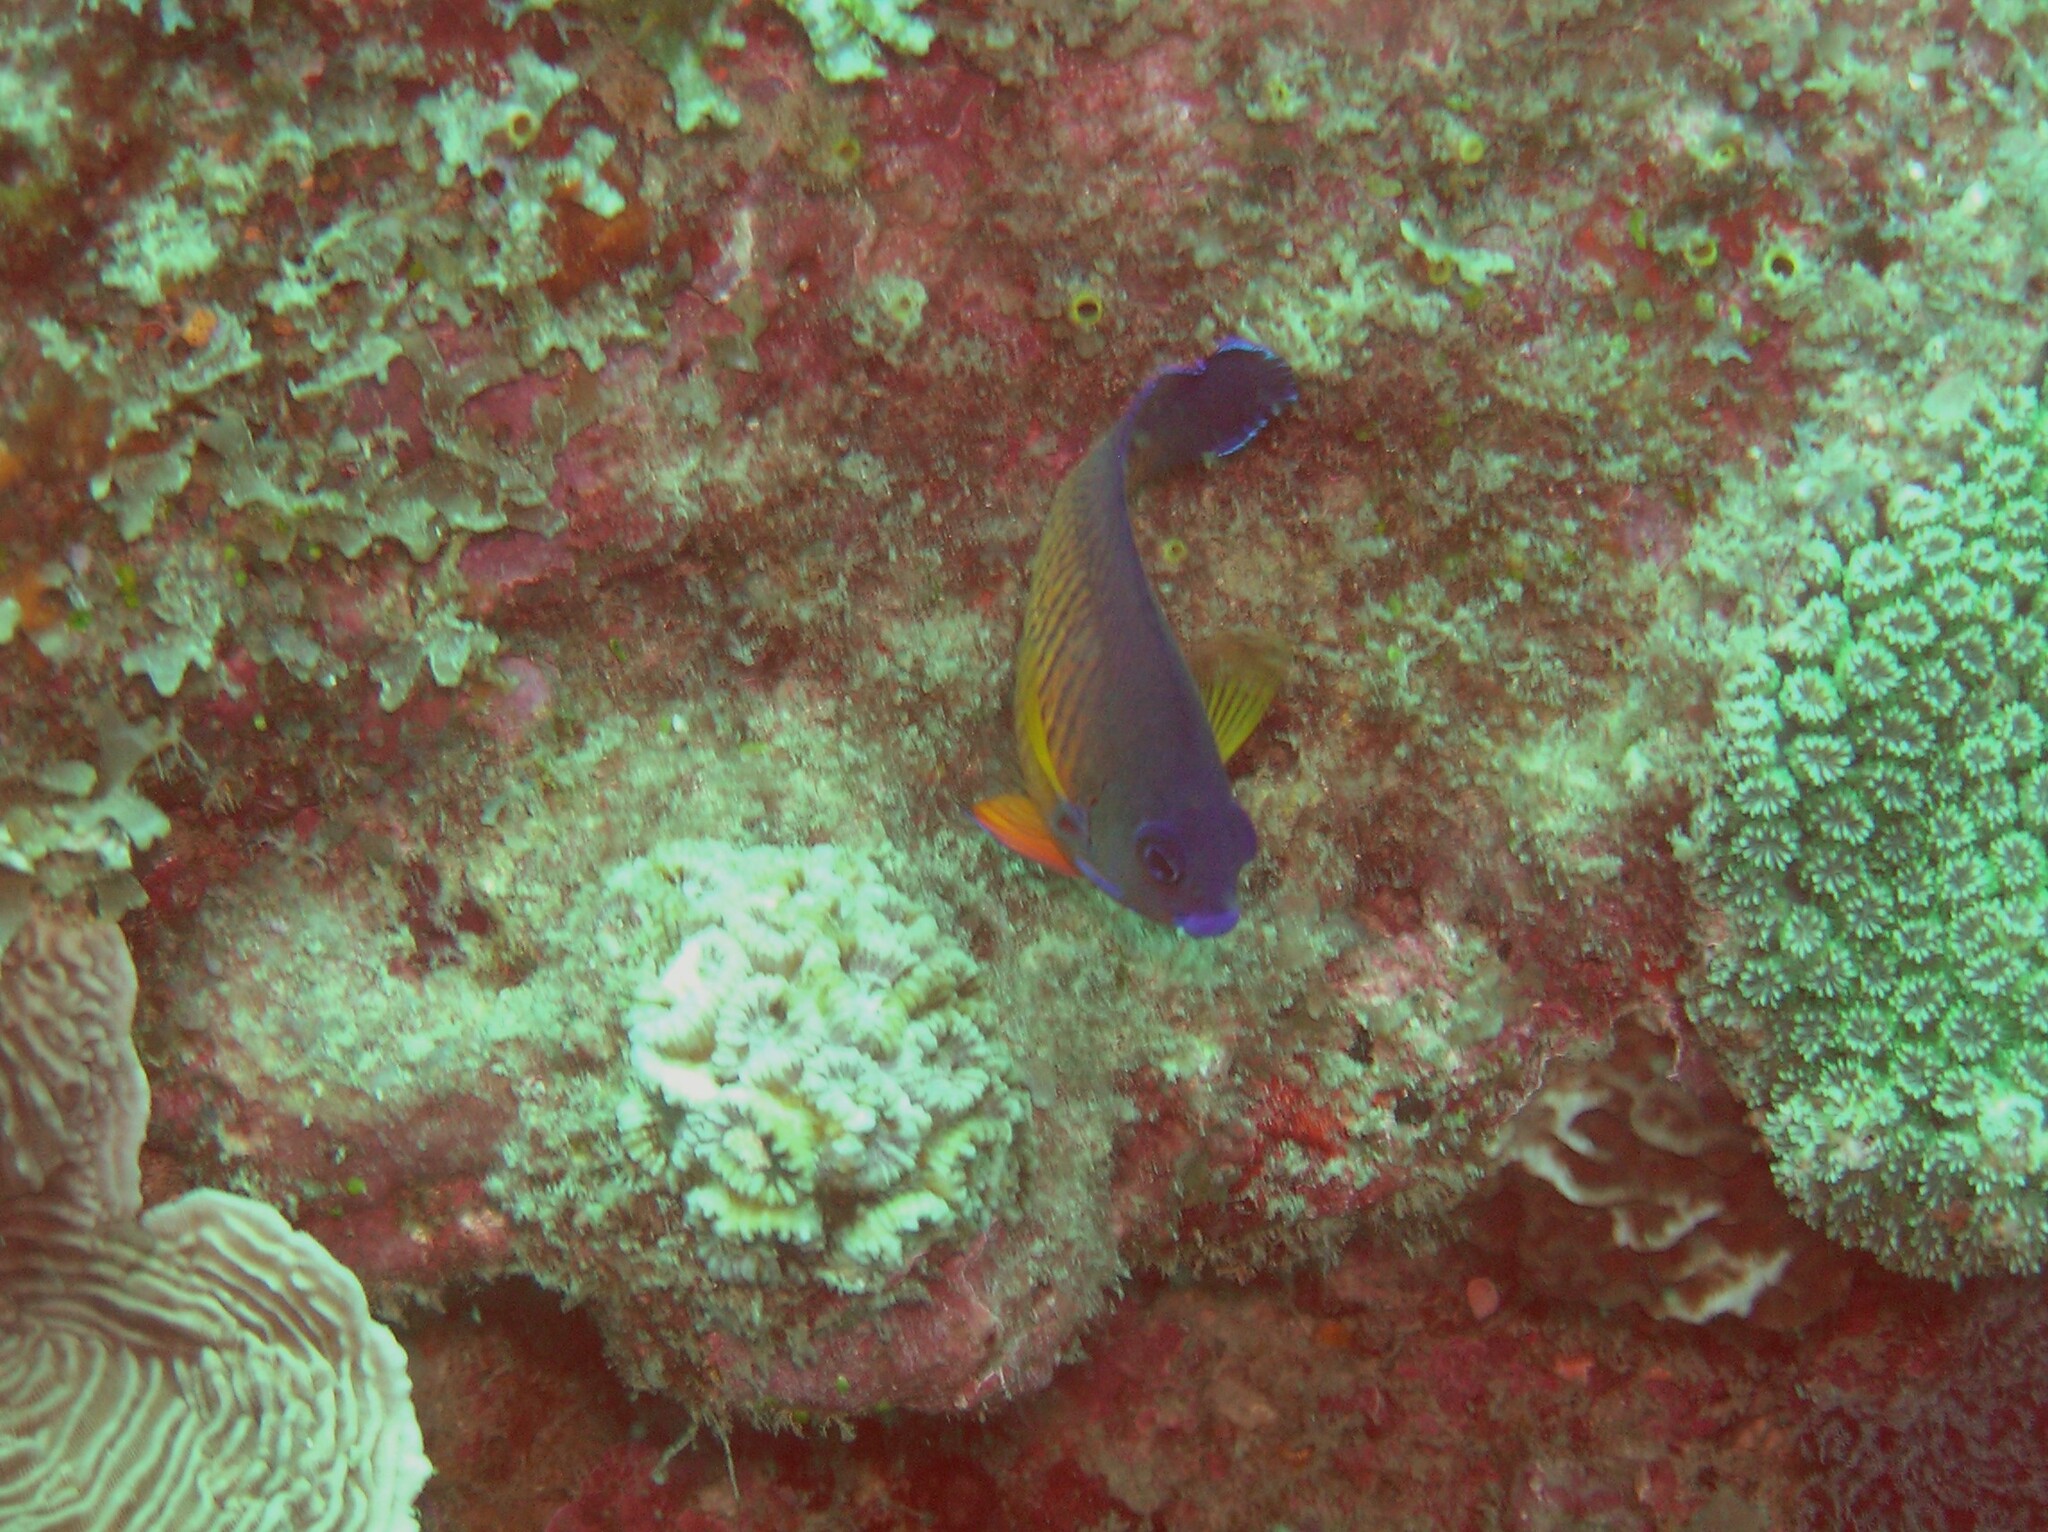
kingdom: Animalia
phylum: Chordata
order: Perciformes
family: Pomacanthidae
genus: Centropyge
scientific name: Centropyge bispinosa
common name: Coral beauty
